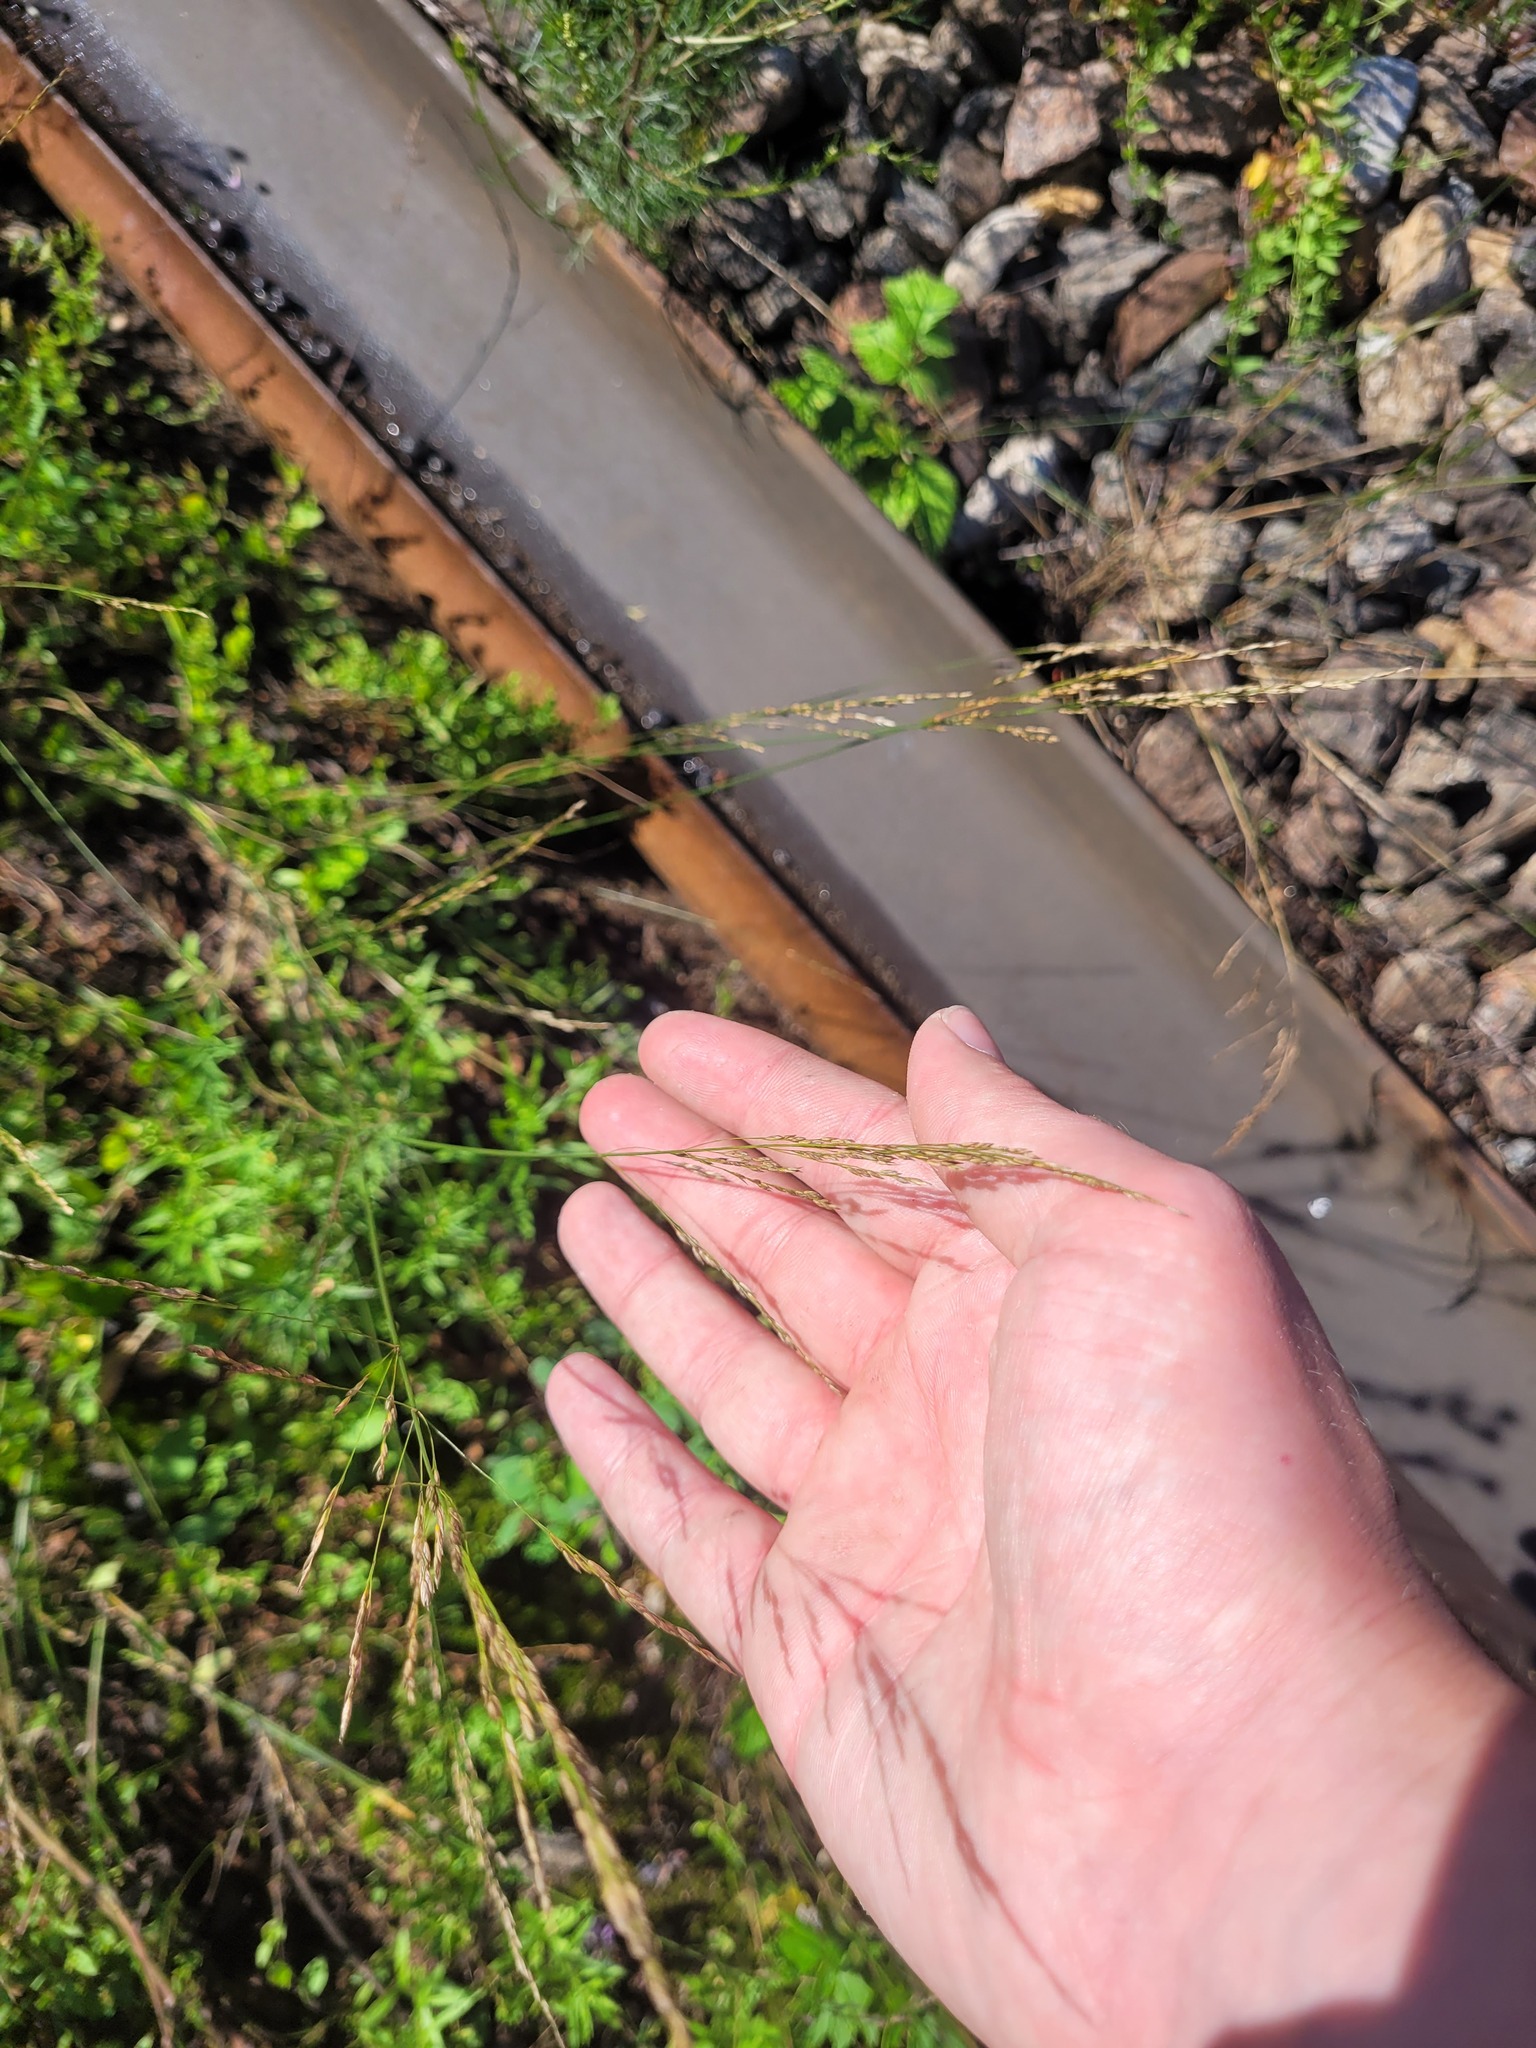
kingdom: Plantae
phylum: Tracheophyta
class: Liliopsida
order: Poales
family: Poaceae
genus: Poa
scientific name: Poa palustris
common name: Swamp meadow-grass
